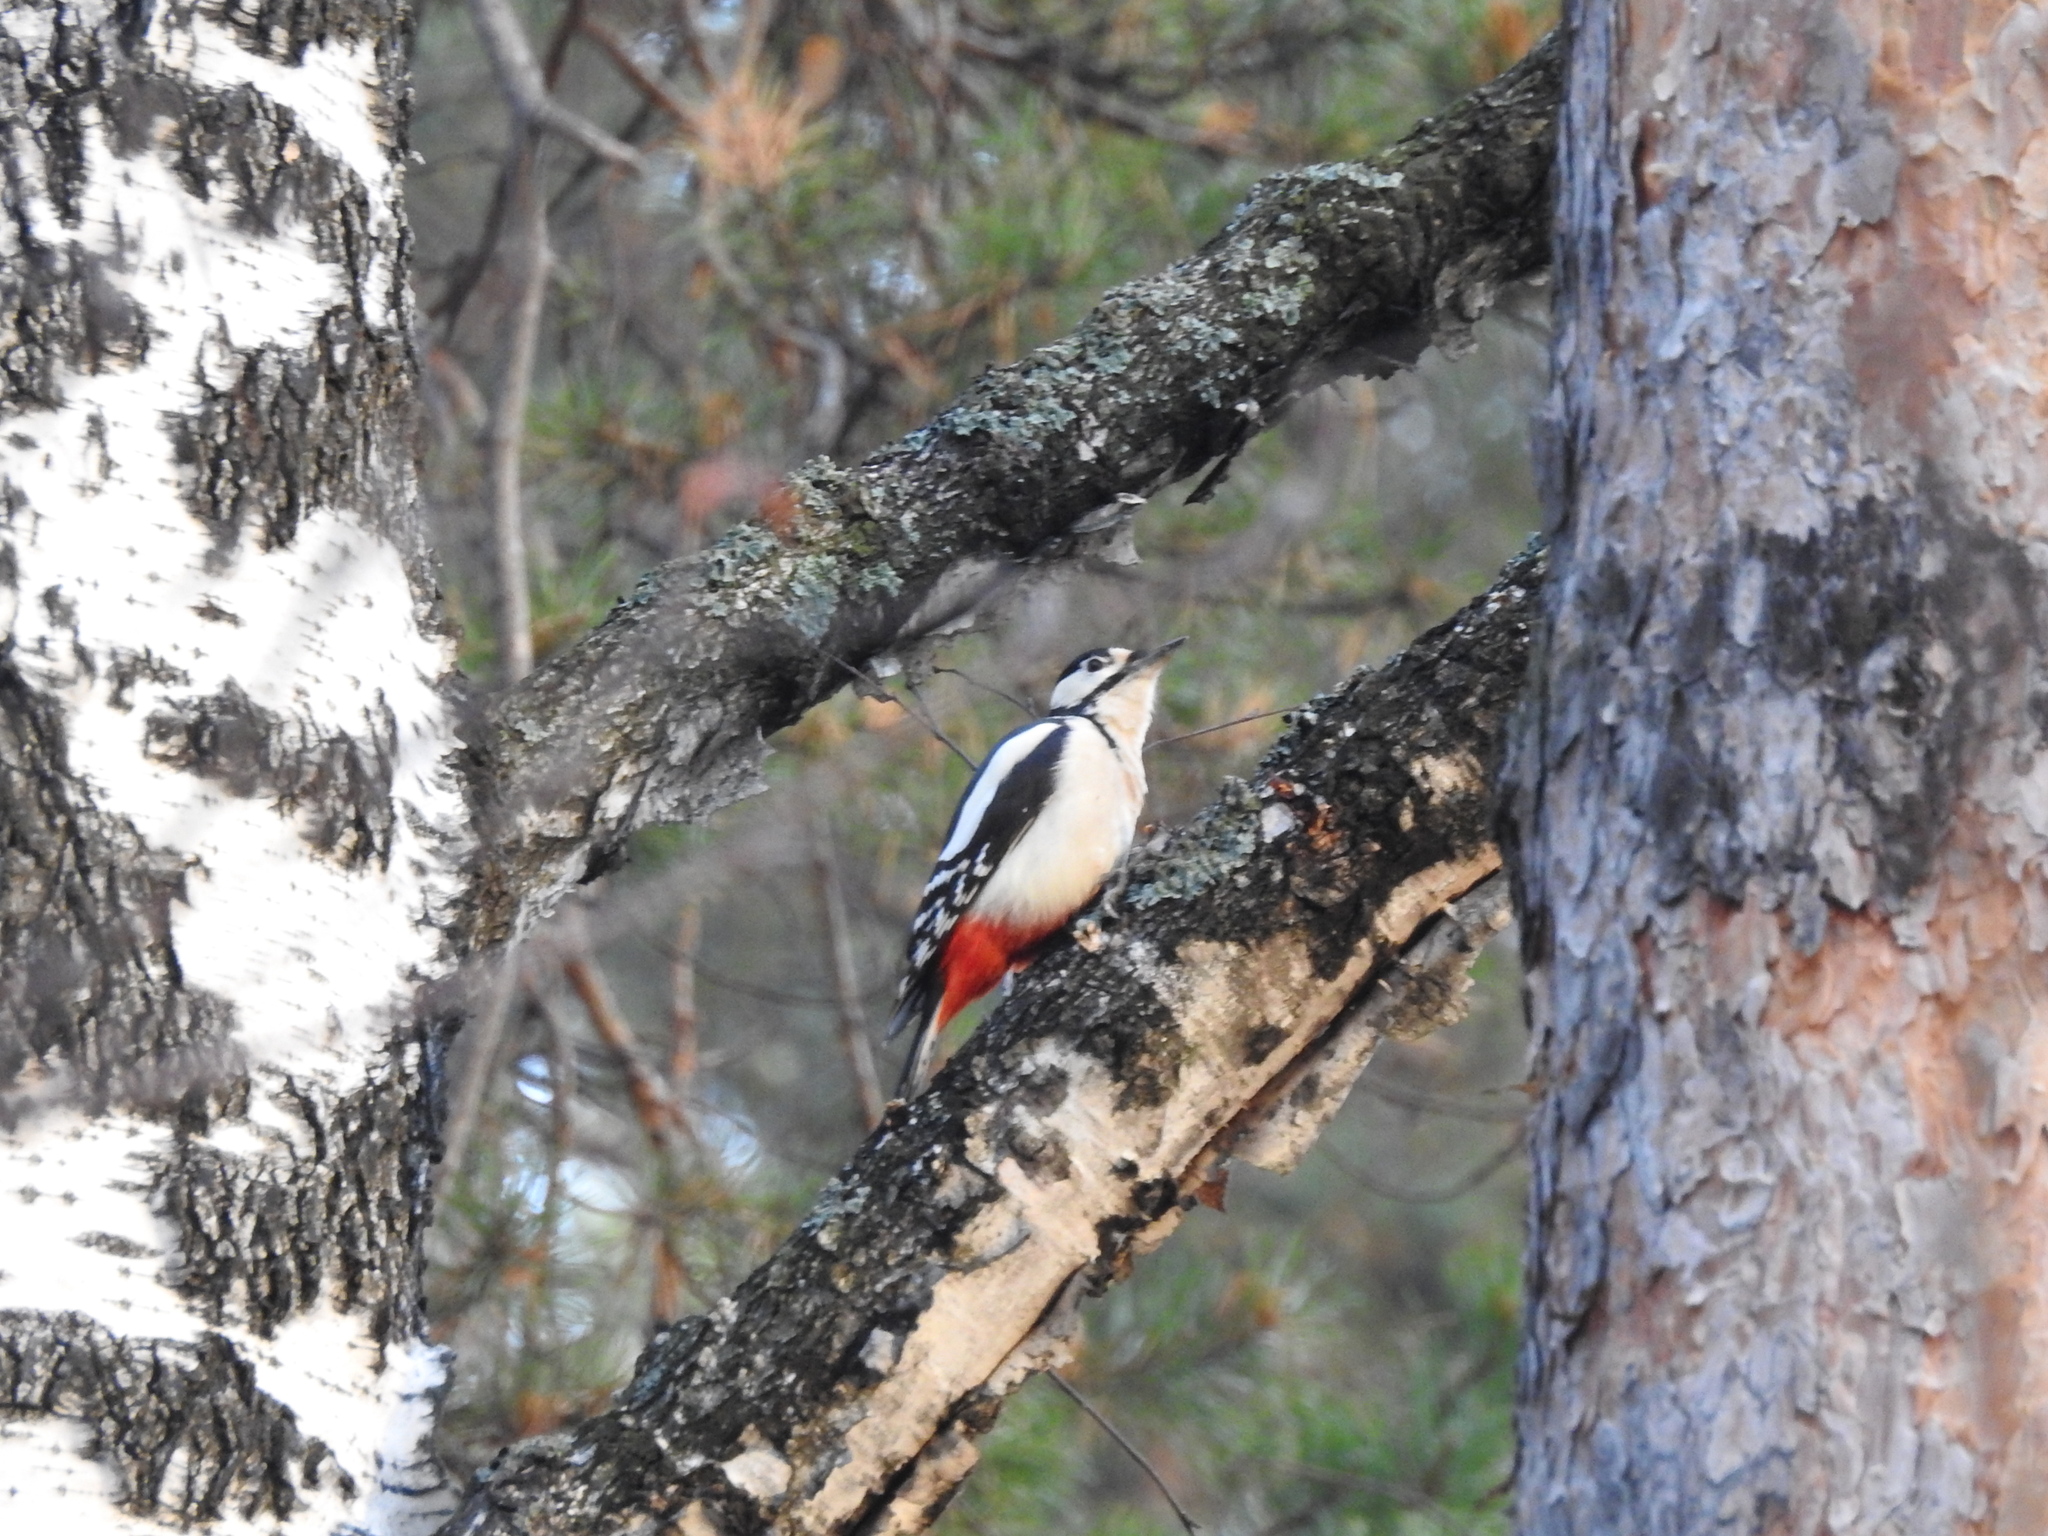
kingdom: Animalia
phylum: Chordata
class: Aves
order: Piciformes
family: Picidae
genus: Dendrocopos
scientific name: Dendrocopos major
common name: Great spotted woodpecker
